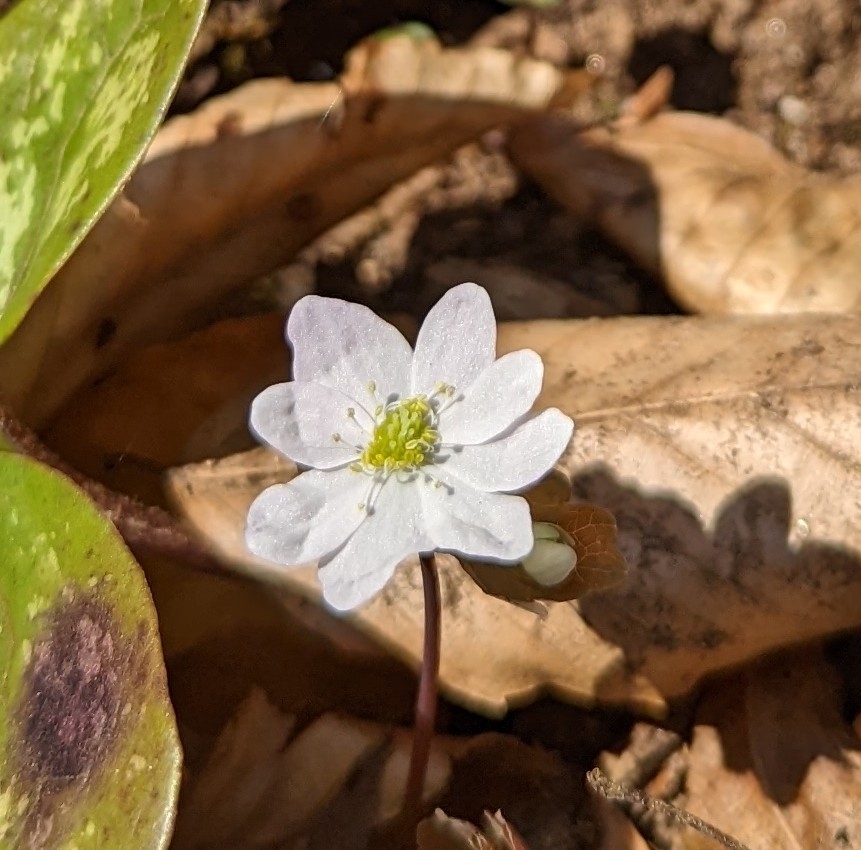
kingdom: Plantae
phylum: Tracheophyta
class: Magnoliopsida
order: Ranunculales
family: Ranunculaceae
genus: Thalictrum
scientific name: Thalictrum thalictroides
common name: Rue-anemone
